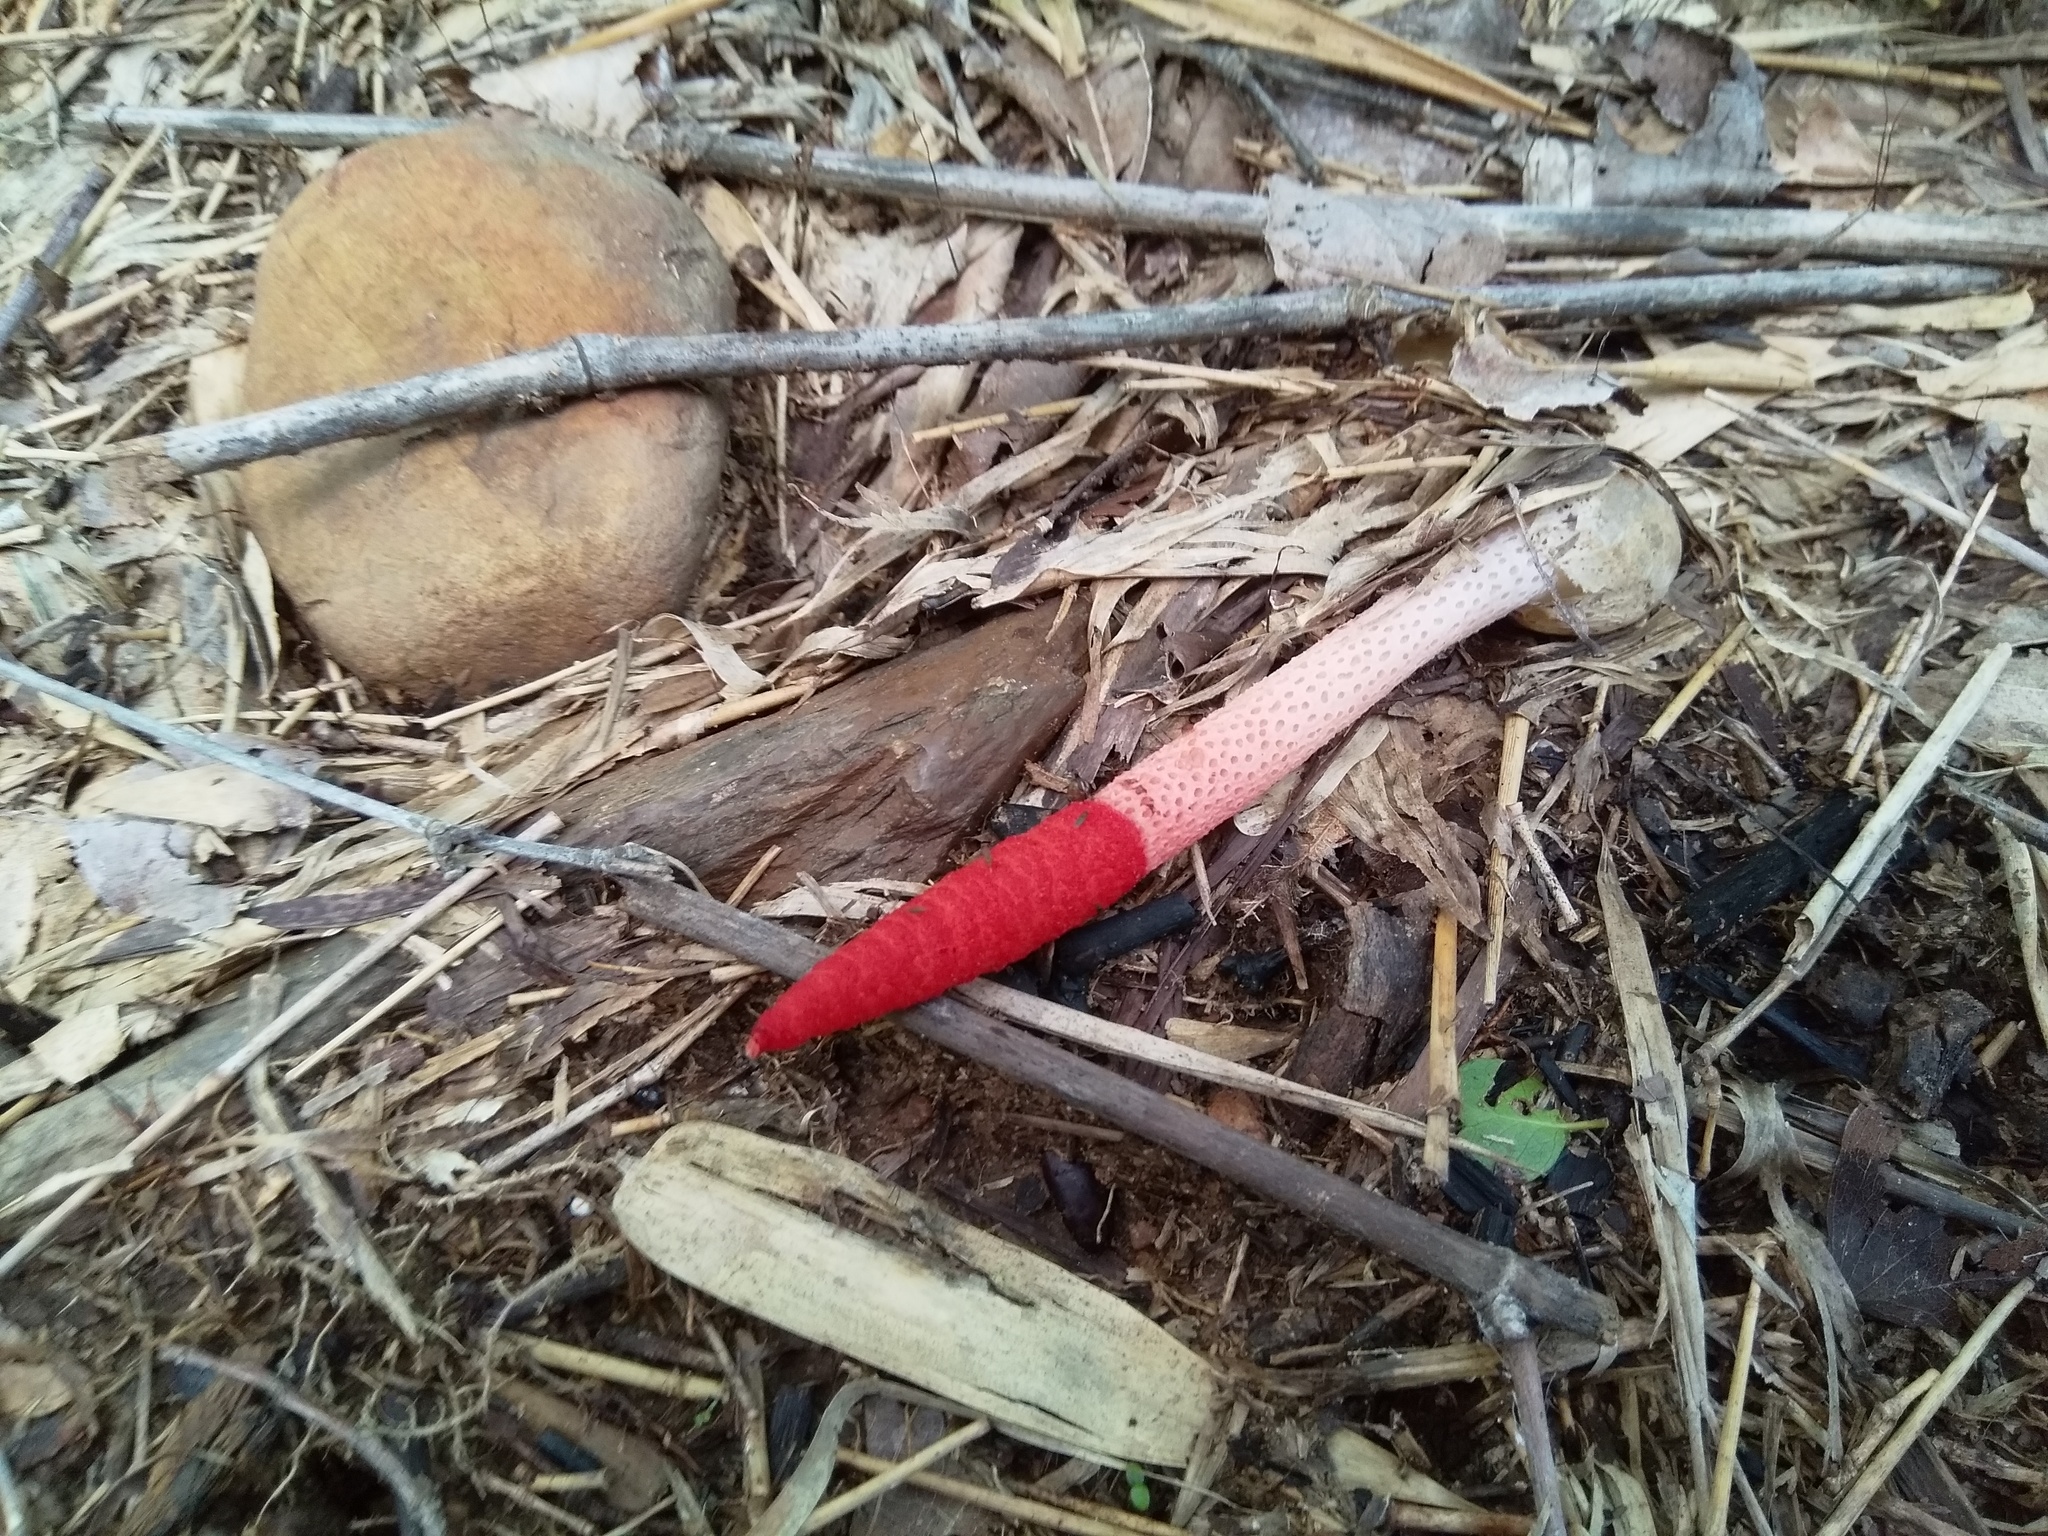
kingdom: Fungi
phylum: Basidiomycota
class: Agaricomycetes
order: Phallales
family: Phallaceae
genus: Mutinus
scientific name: Mutinus bambusinus
